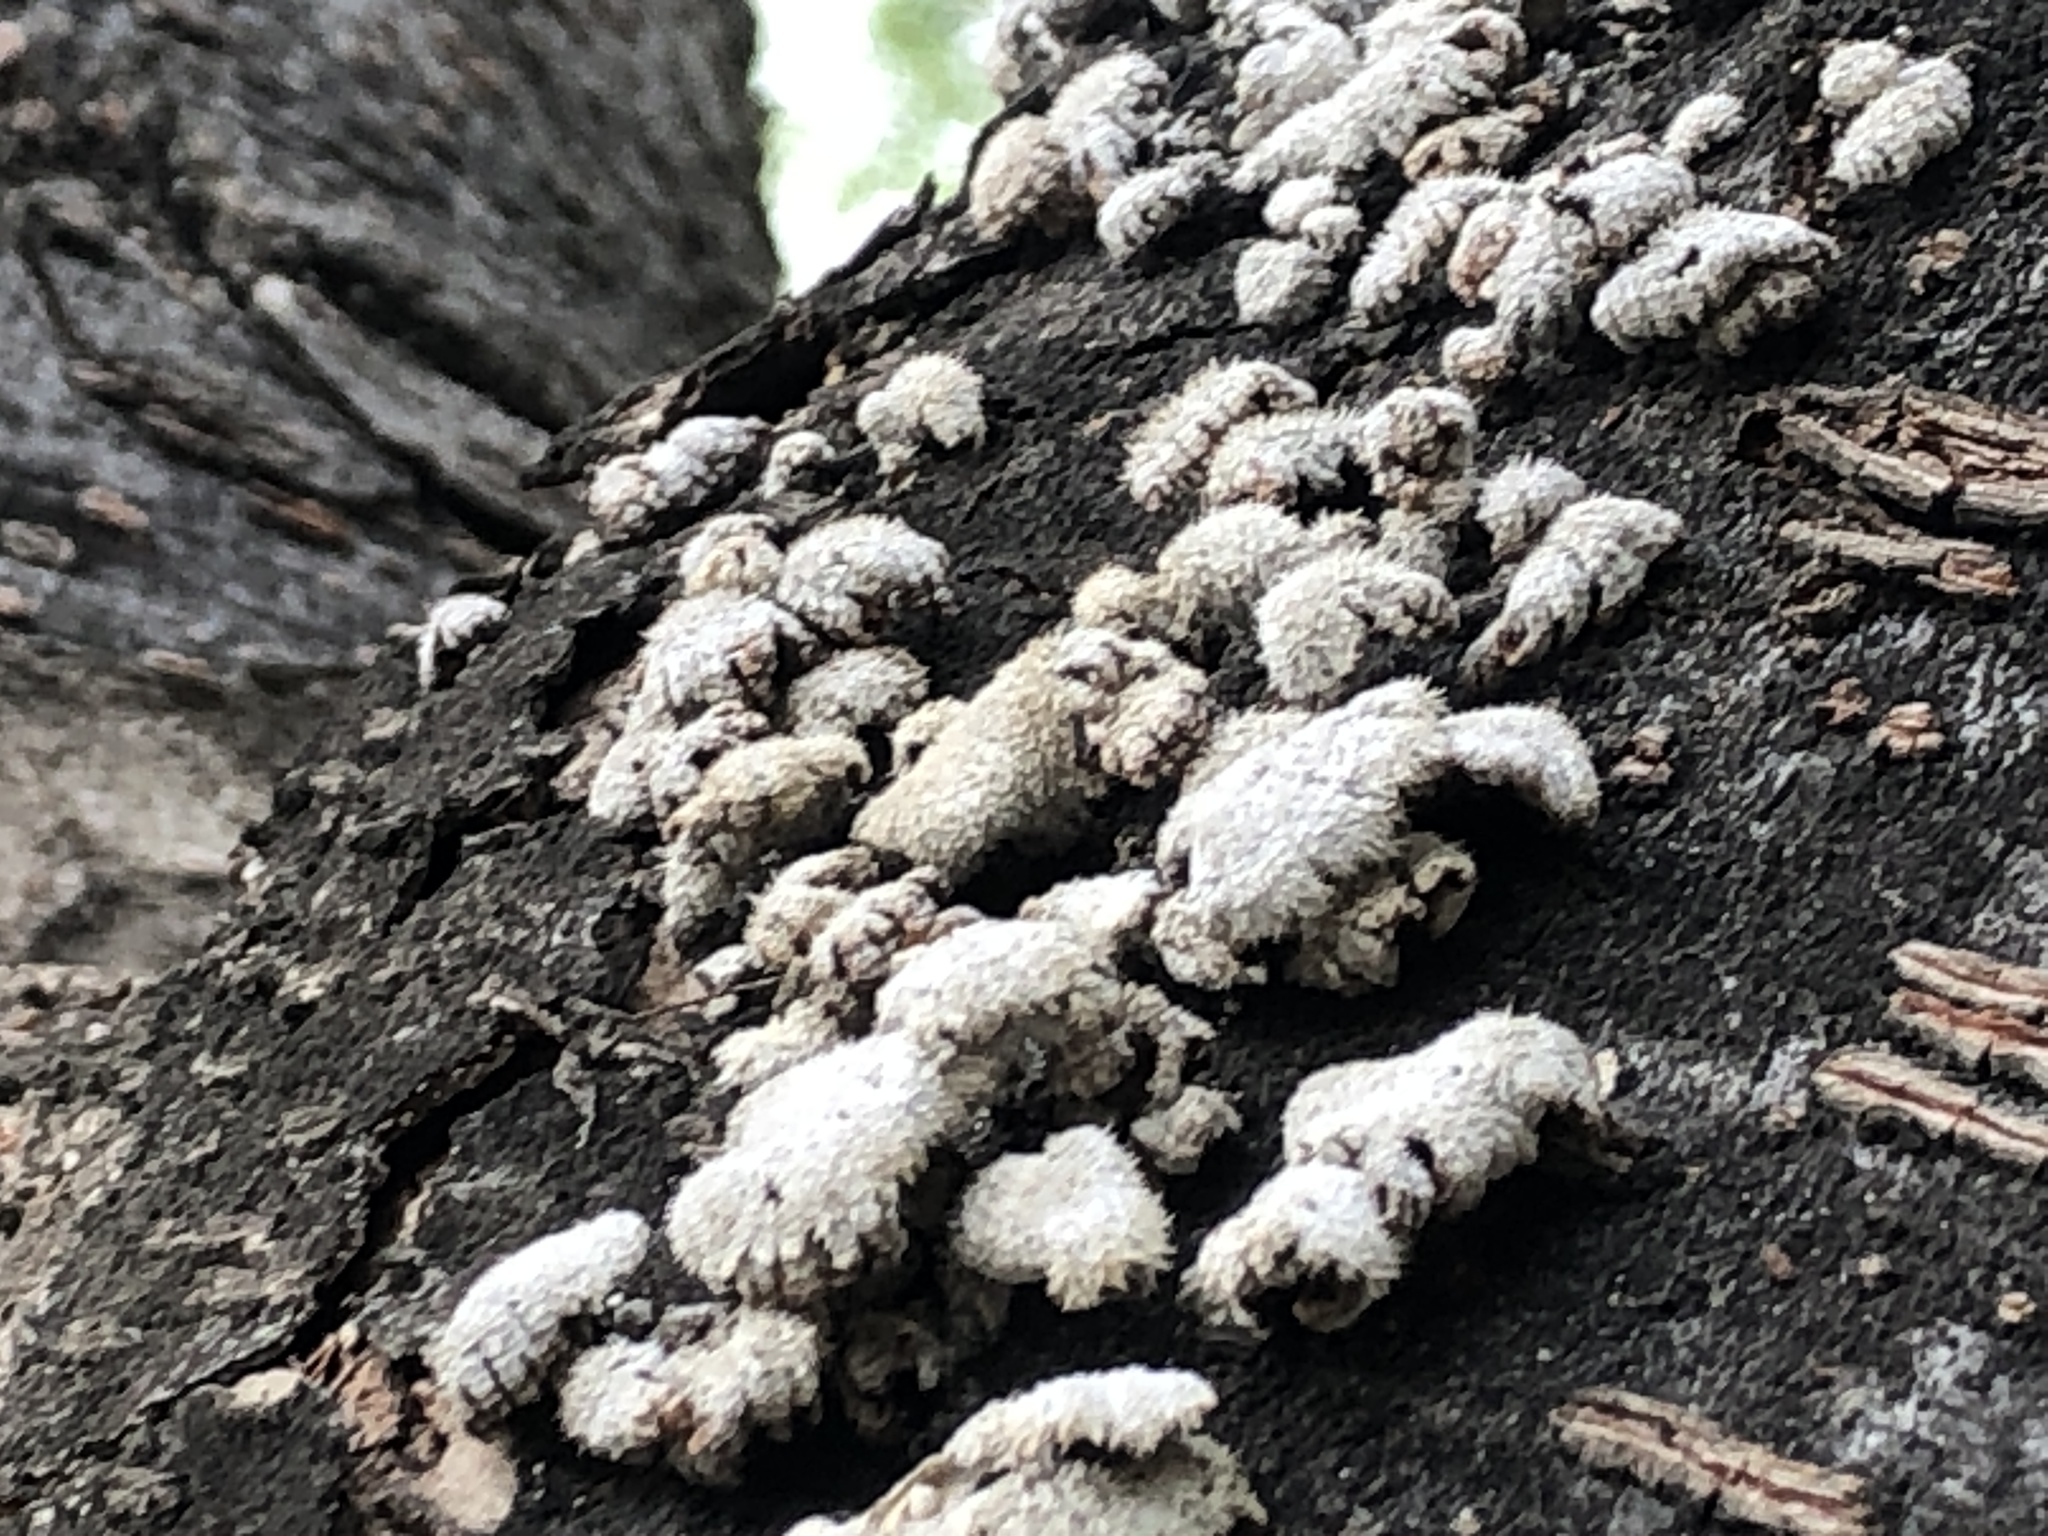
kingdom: Fungi
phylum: Basidiomycota
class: Agaricomycetes
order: Agaricales
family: Schizophyllaceae
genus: Schizophyllum
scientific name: Schizophyllum commune
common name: Common porecrust
